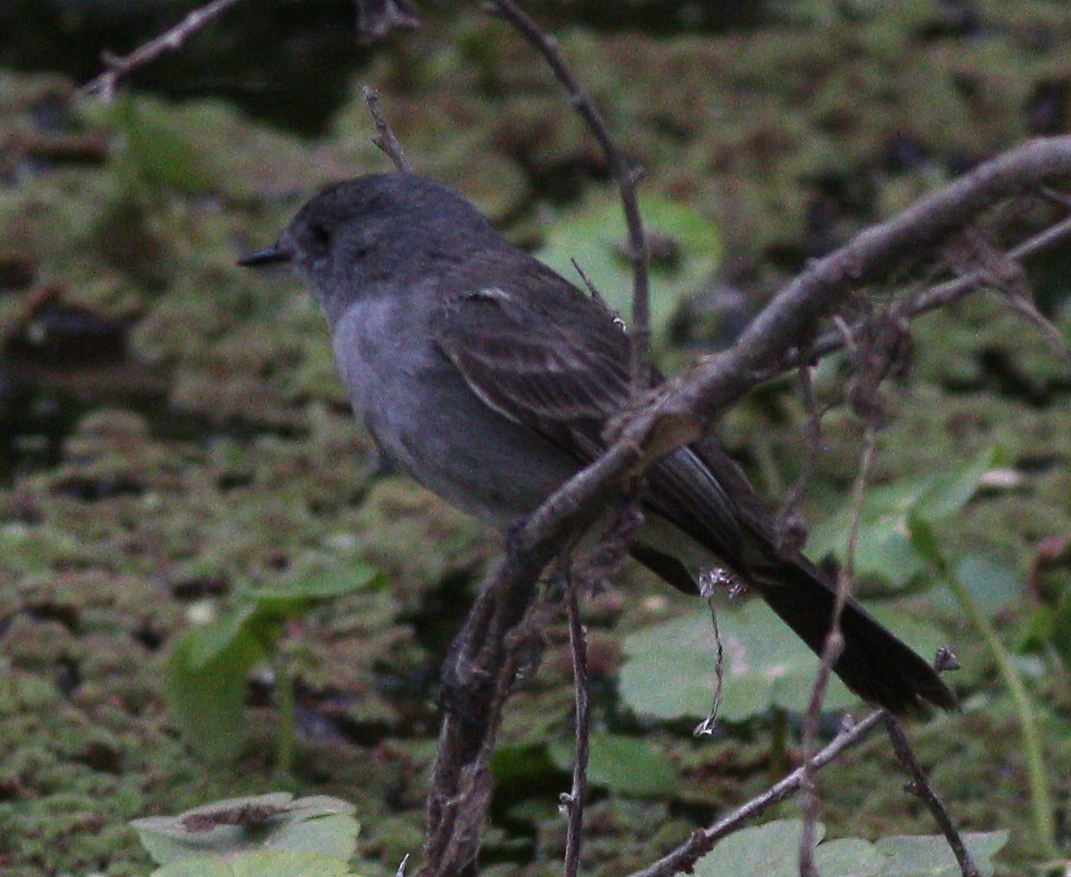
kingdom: Animalia
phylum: Chordata
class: Aves
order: Passeriformes
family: Tyrannidae
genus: Serpophaga
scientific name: Serpophaga nigricans
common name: Sooty tyrannulet
